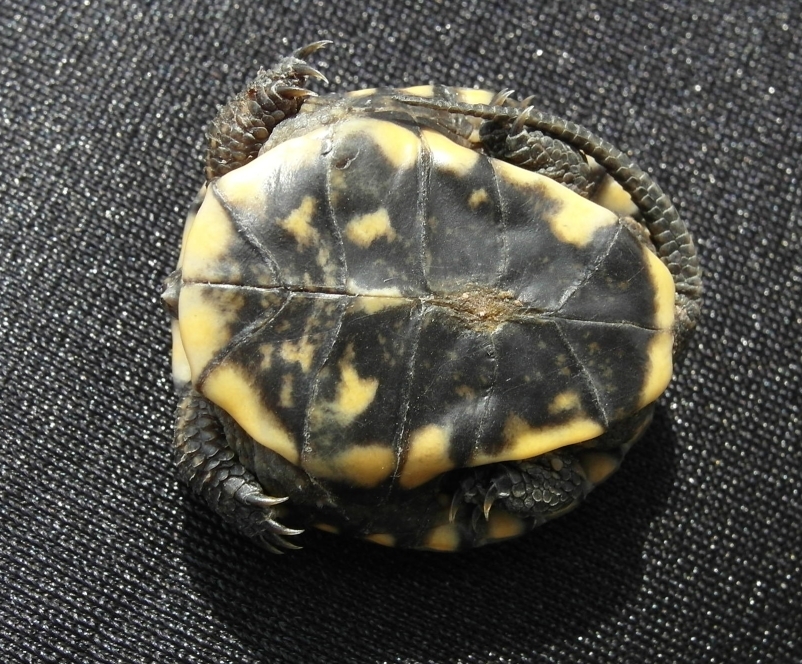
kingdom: Animalia
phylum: Chordata
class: Testudines
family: Emydidae
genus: Emys
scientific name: Emys orbicularis
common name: European pond turtle
